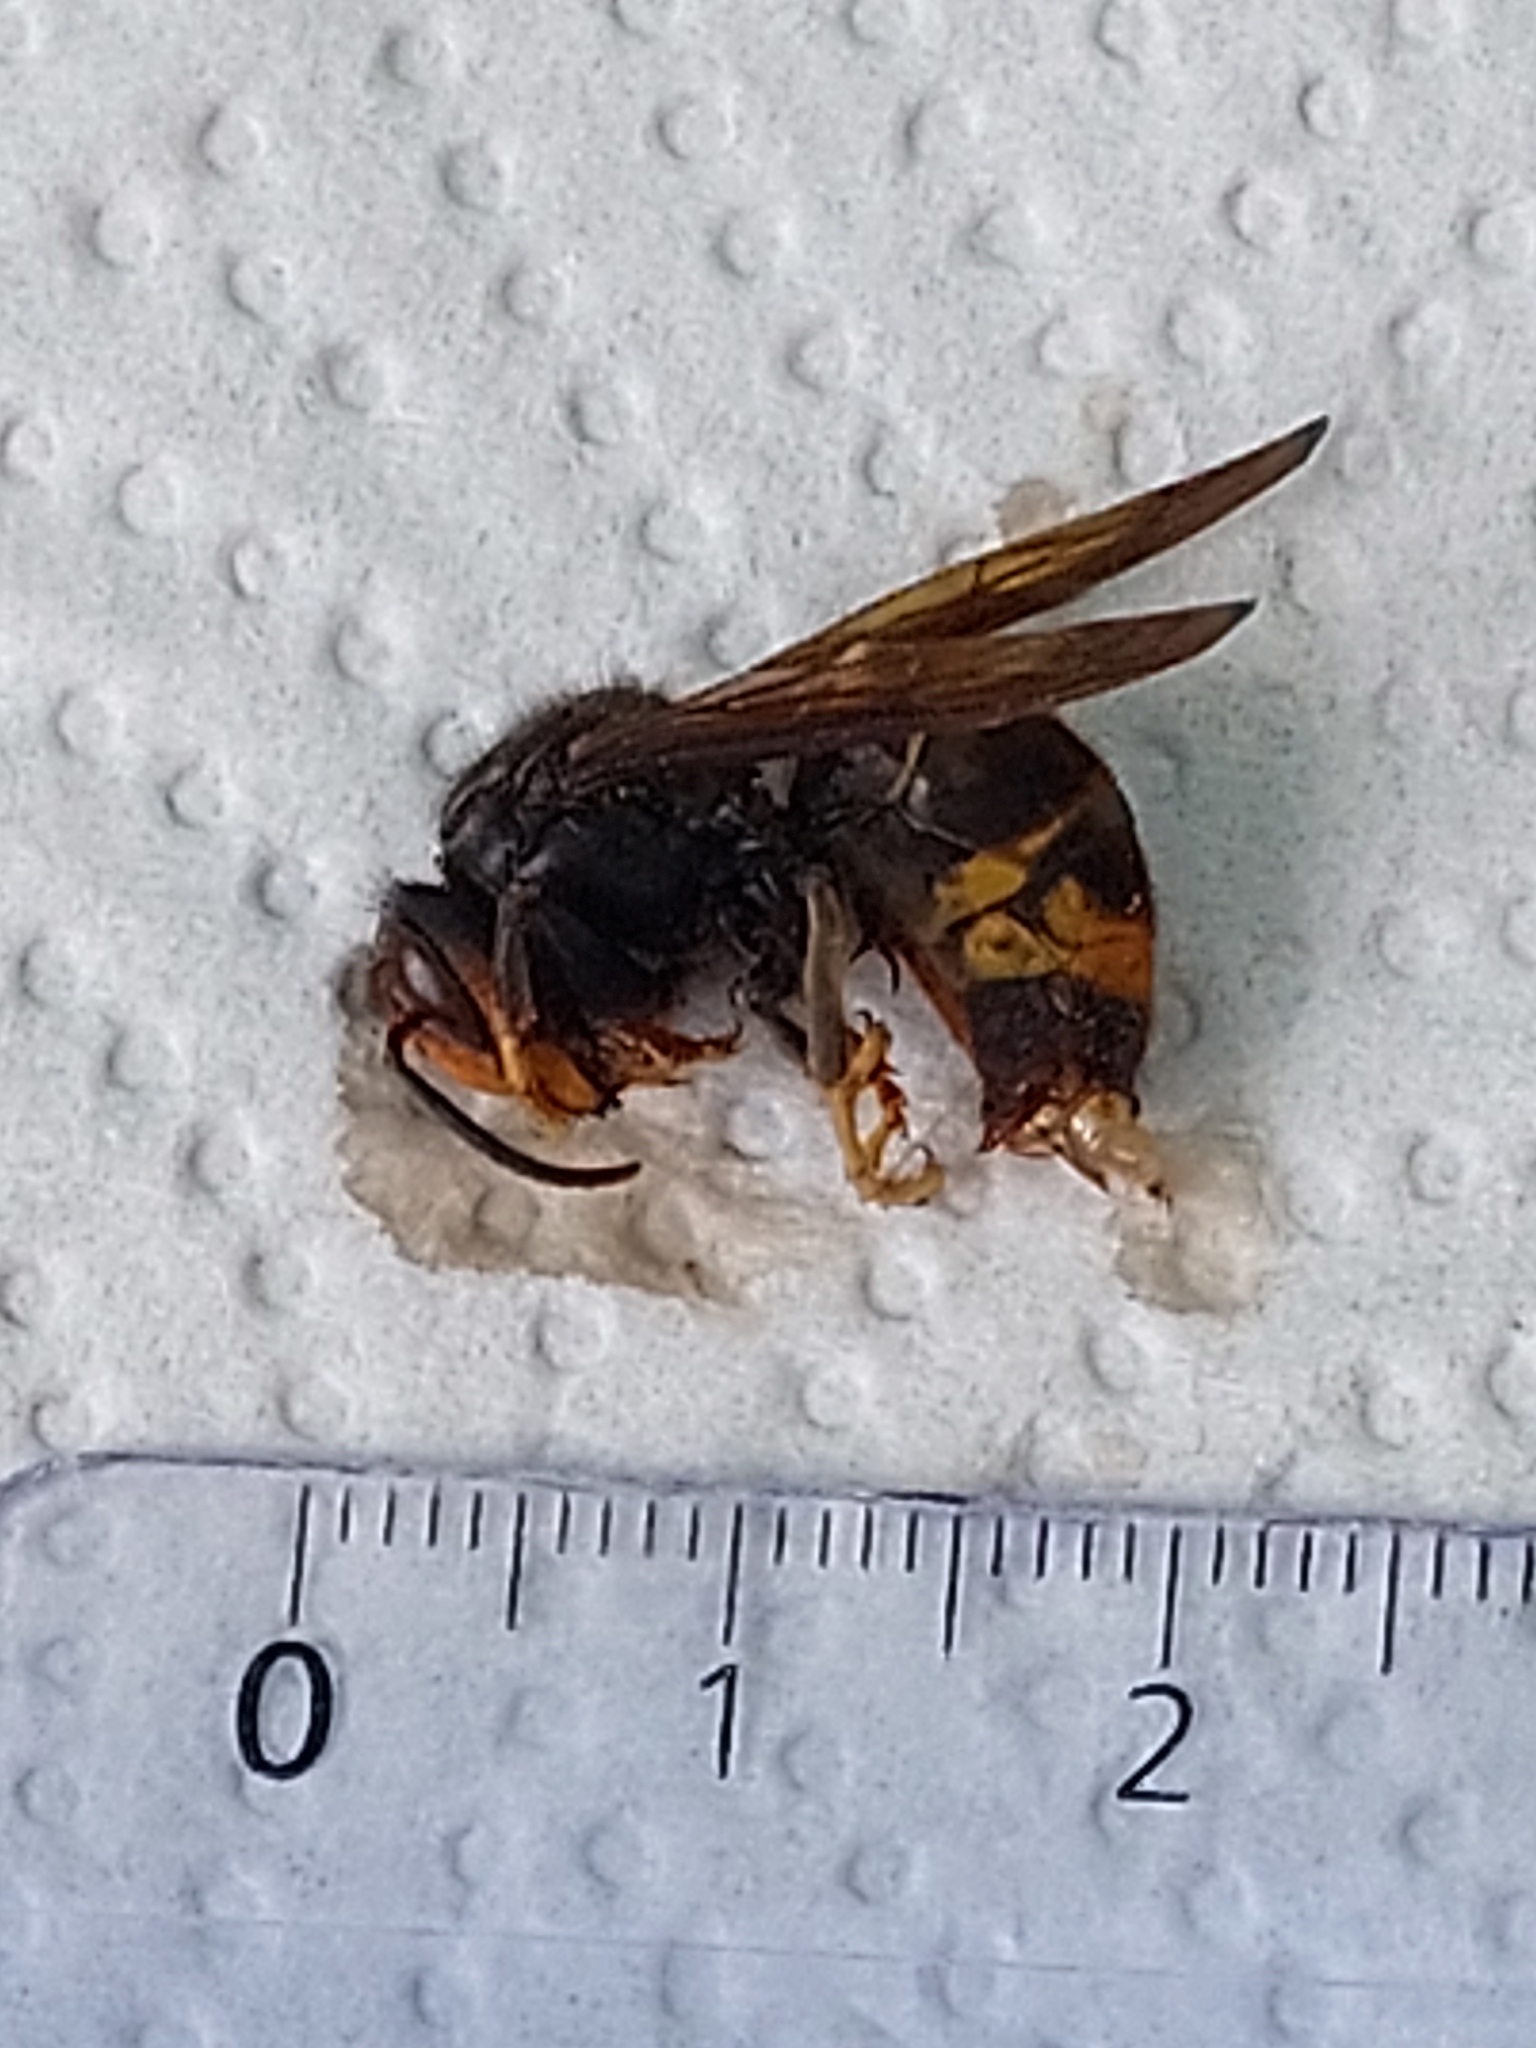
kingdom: Animalia
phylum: Arthropoda
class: Insecta
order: Hymenoptera
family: Vespidae
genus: Vespa
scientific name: Vespa velutina
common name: Asian hornet
